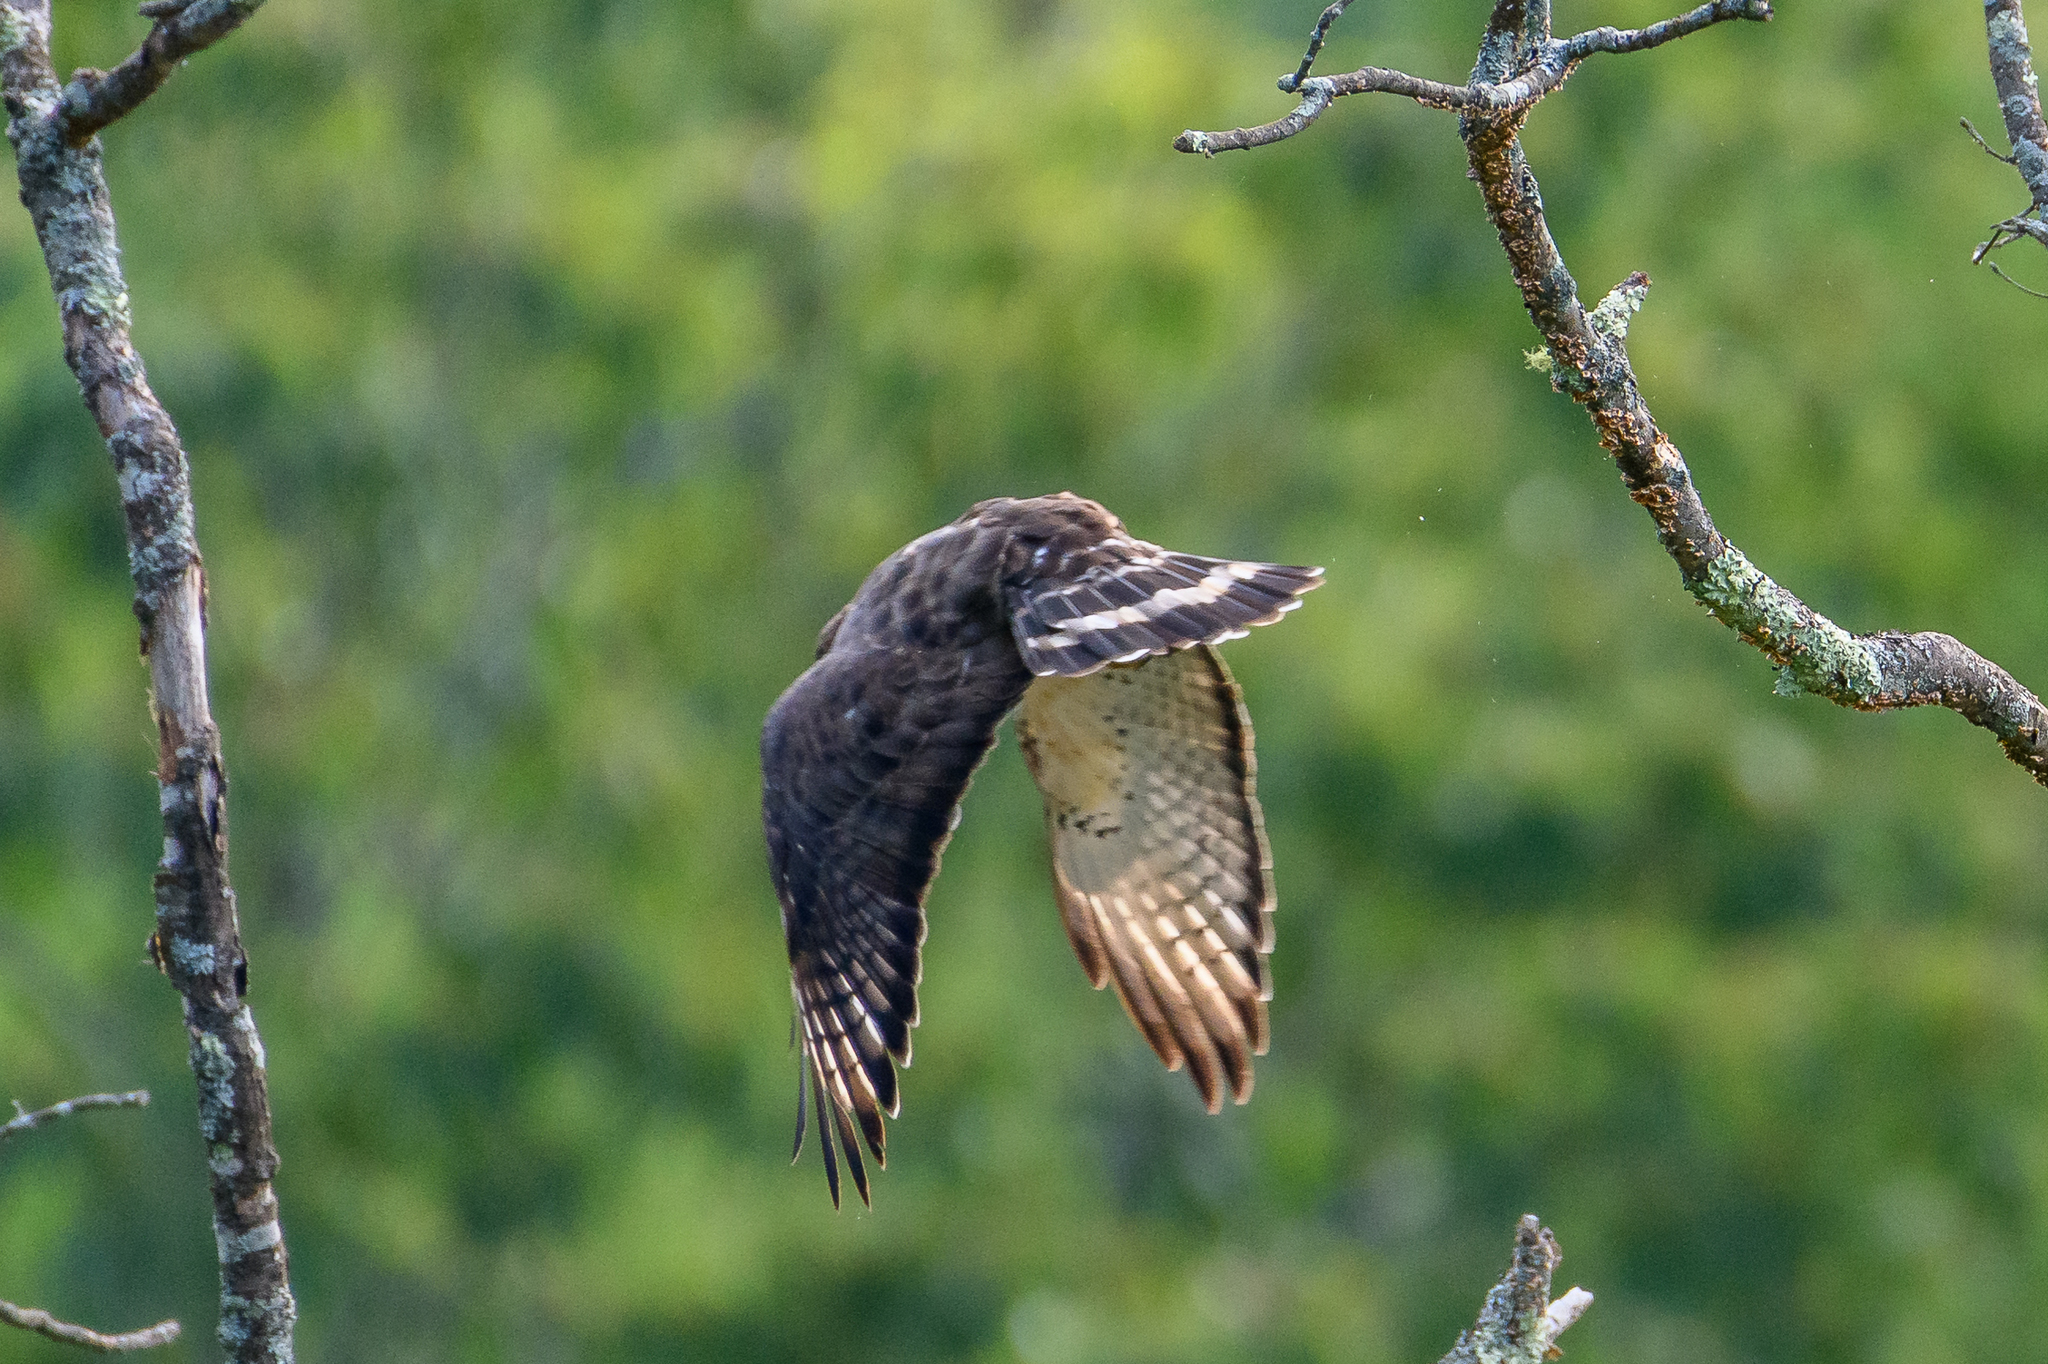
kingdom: Animalia
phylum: Chordata
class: Aves
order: Accipitriformes
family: Accipitridae
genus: Buteo
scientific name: Buteo platypterus
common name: Broad-winged hawk
